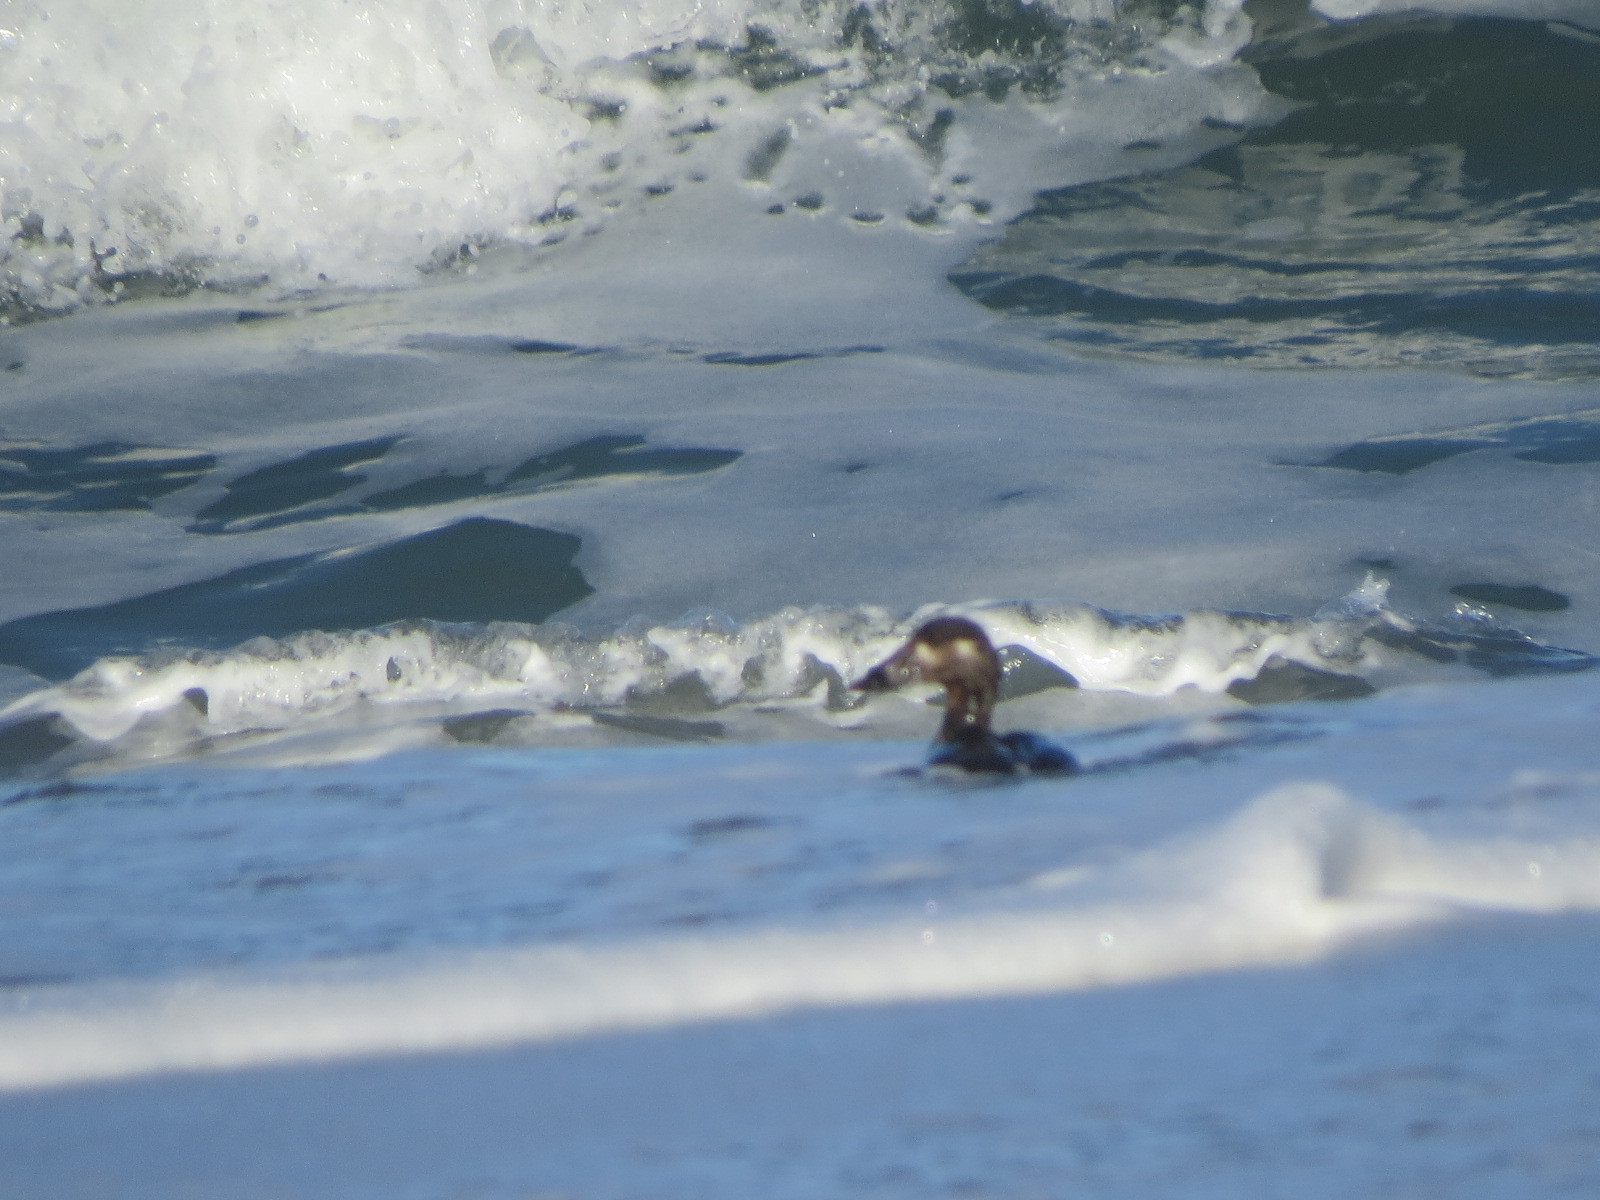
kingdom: Animalia
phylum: Chordata
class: Aves
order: Anseriformes
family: Anatidae
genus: Melanitta
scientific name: Melanitta perspicillata
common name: Surf scoter
